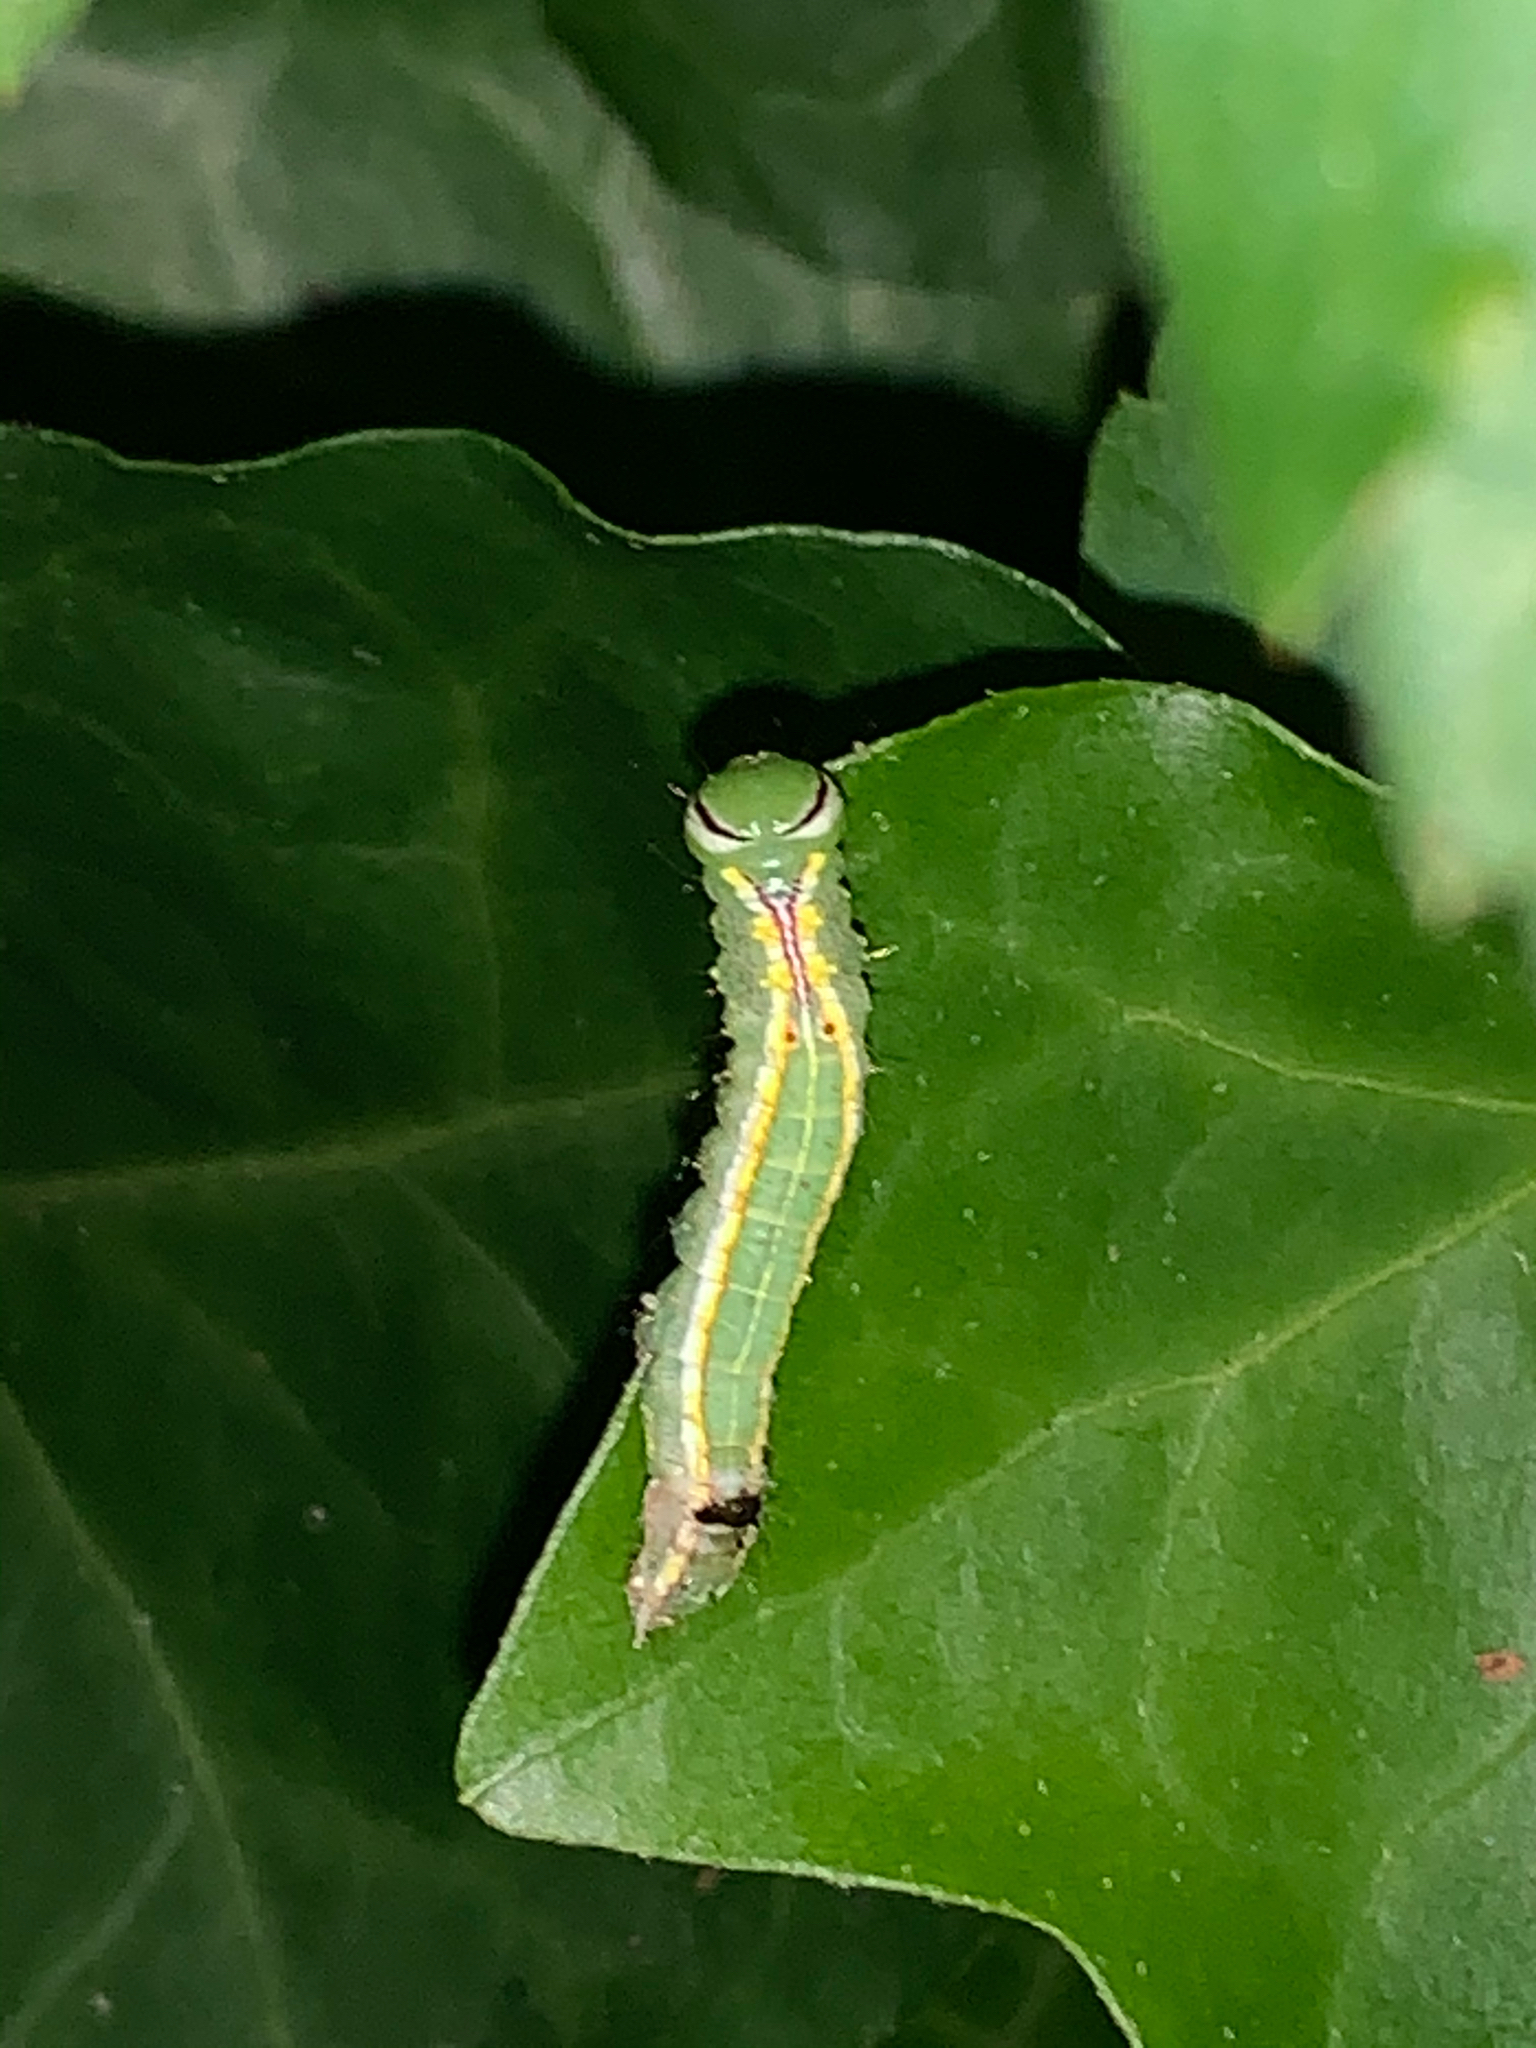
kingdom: Animalia
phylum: Arthropoda
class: Insecta
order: Lepidoptera
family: Notodontidae
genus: Lochmaeus
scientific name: Lochmaeus manteo
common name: Variable oakleaf caterpillar moth
